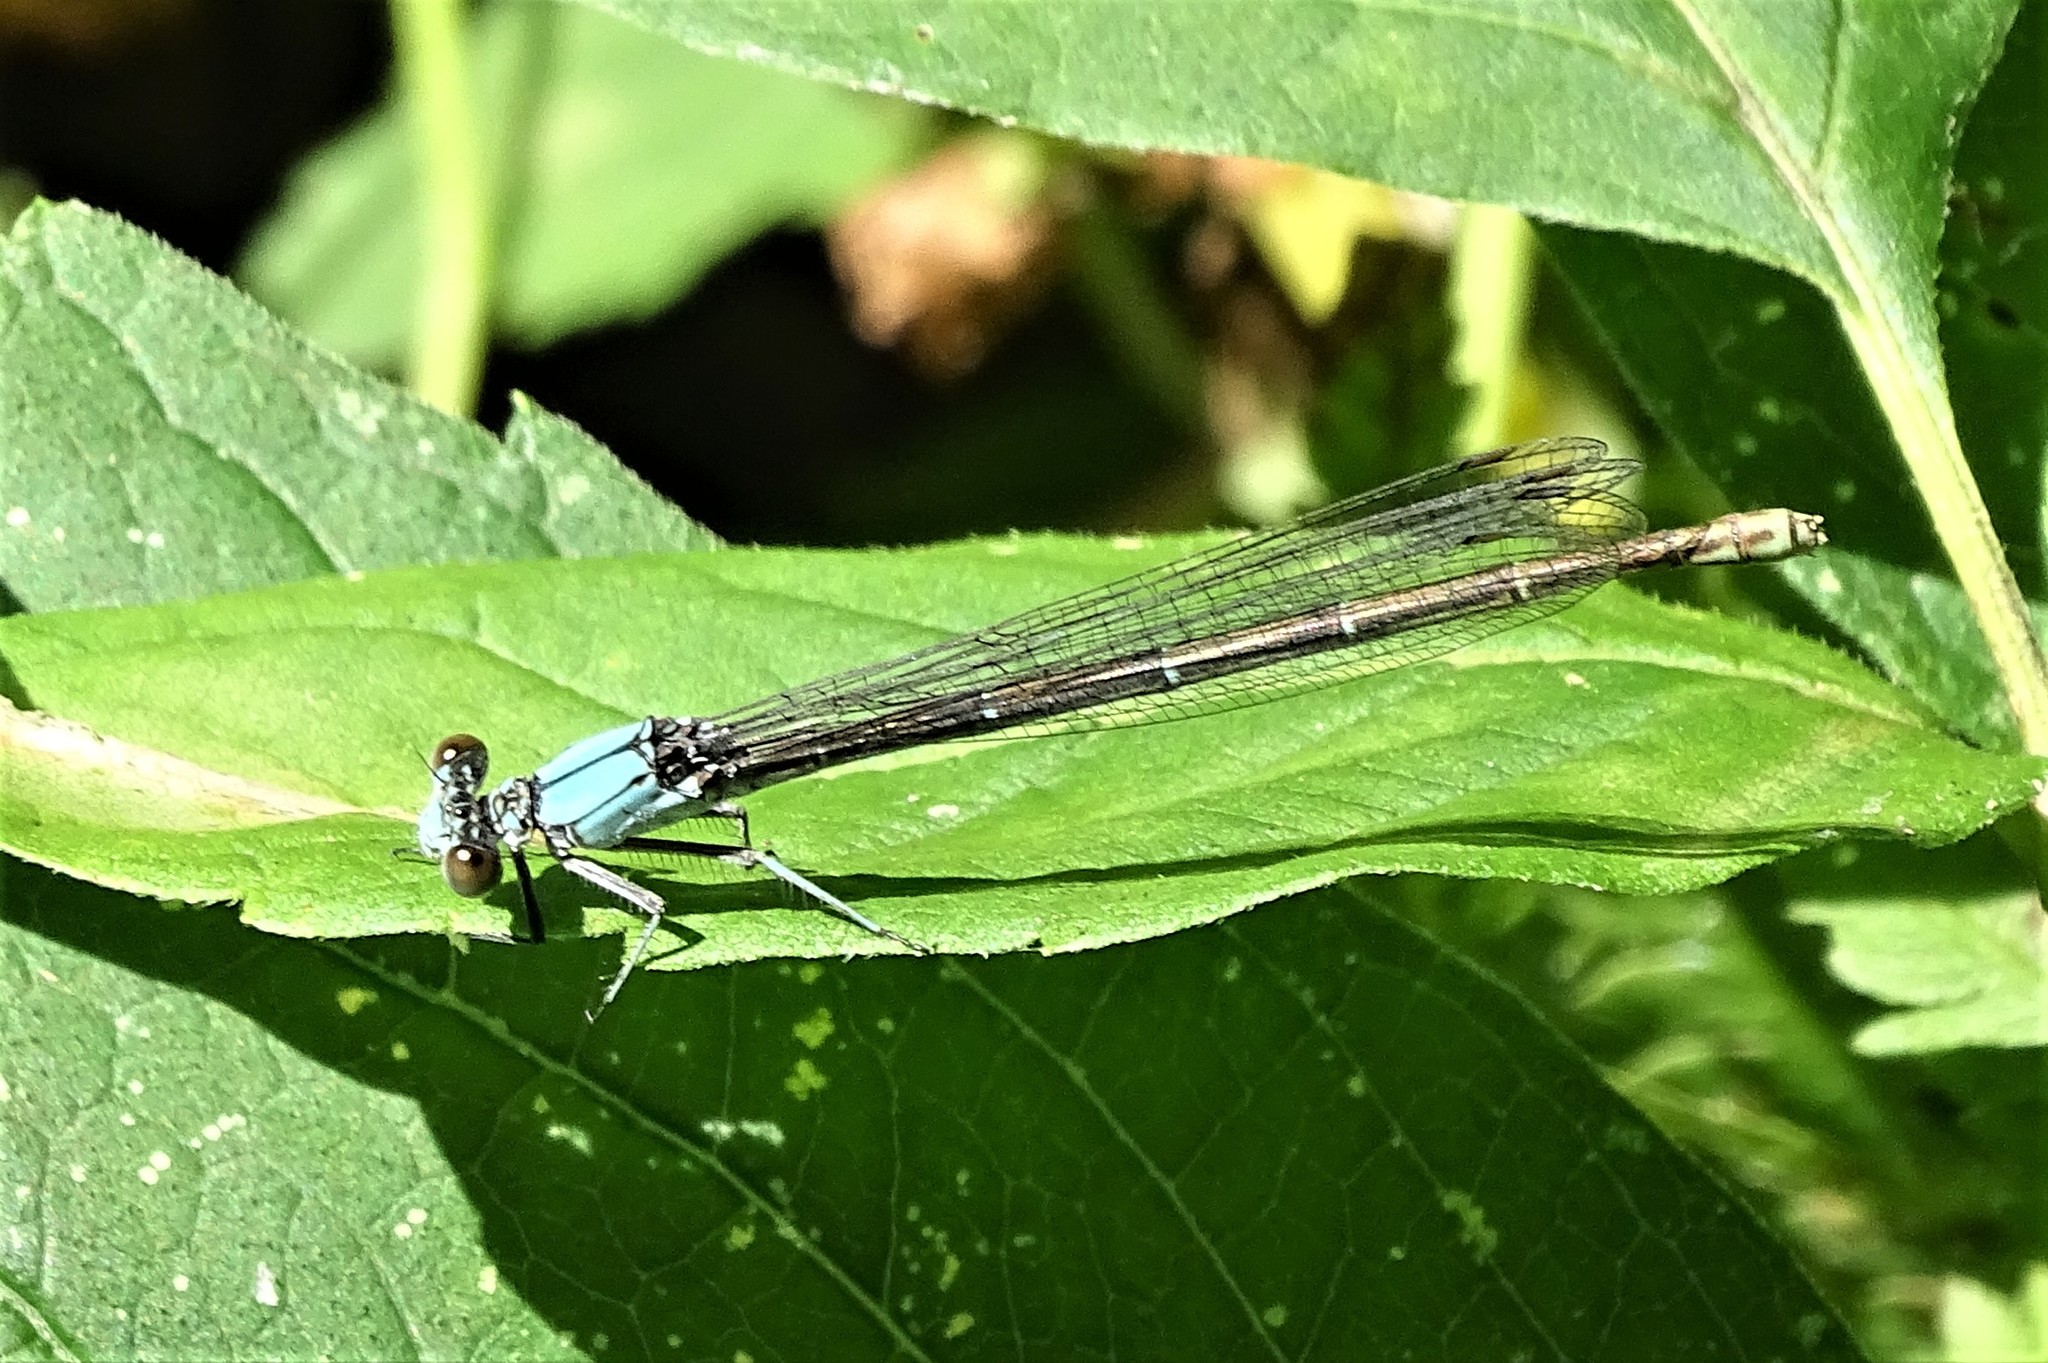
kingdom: Animalia
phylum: Arthropoda
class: Insecta
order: Odonata
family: Coenagrionidae
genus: Argia
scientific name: Argia moesta
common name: Powdered dancer
